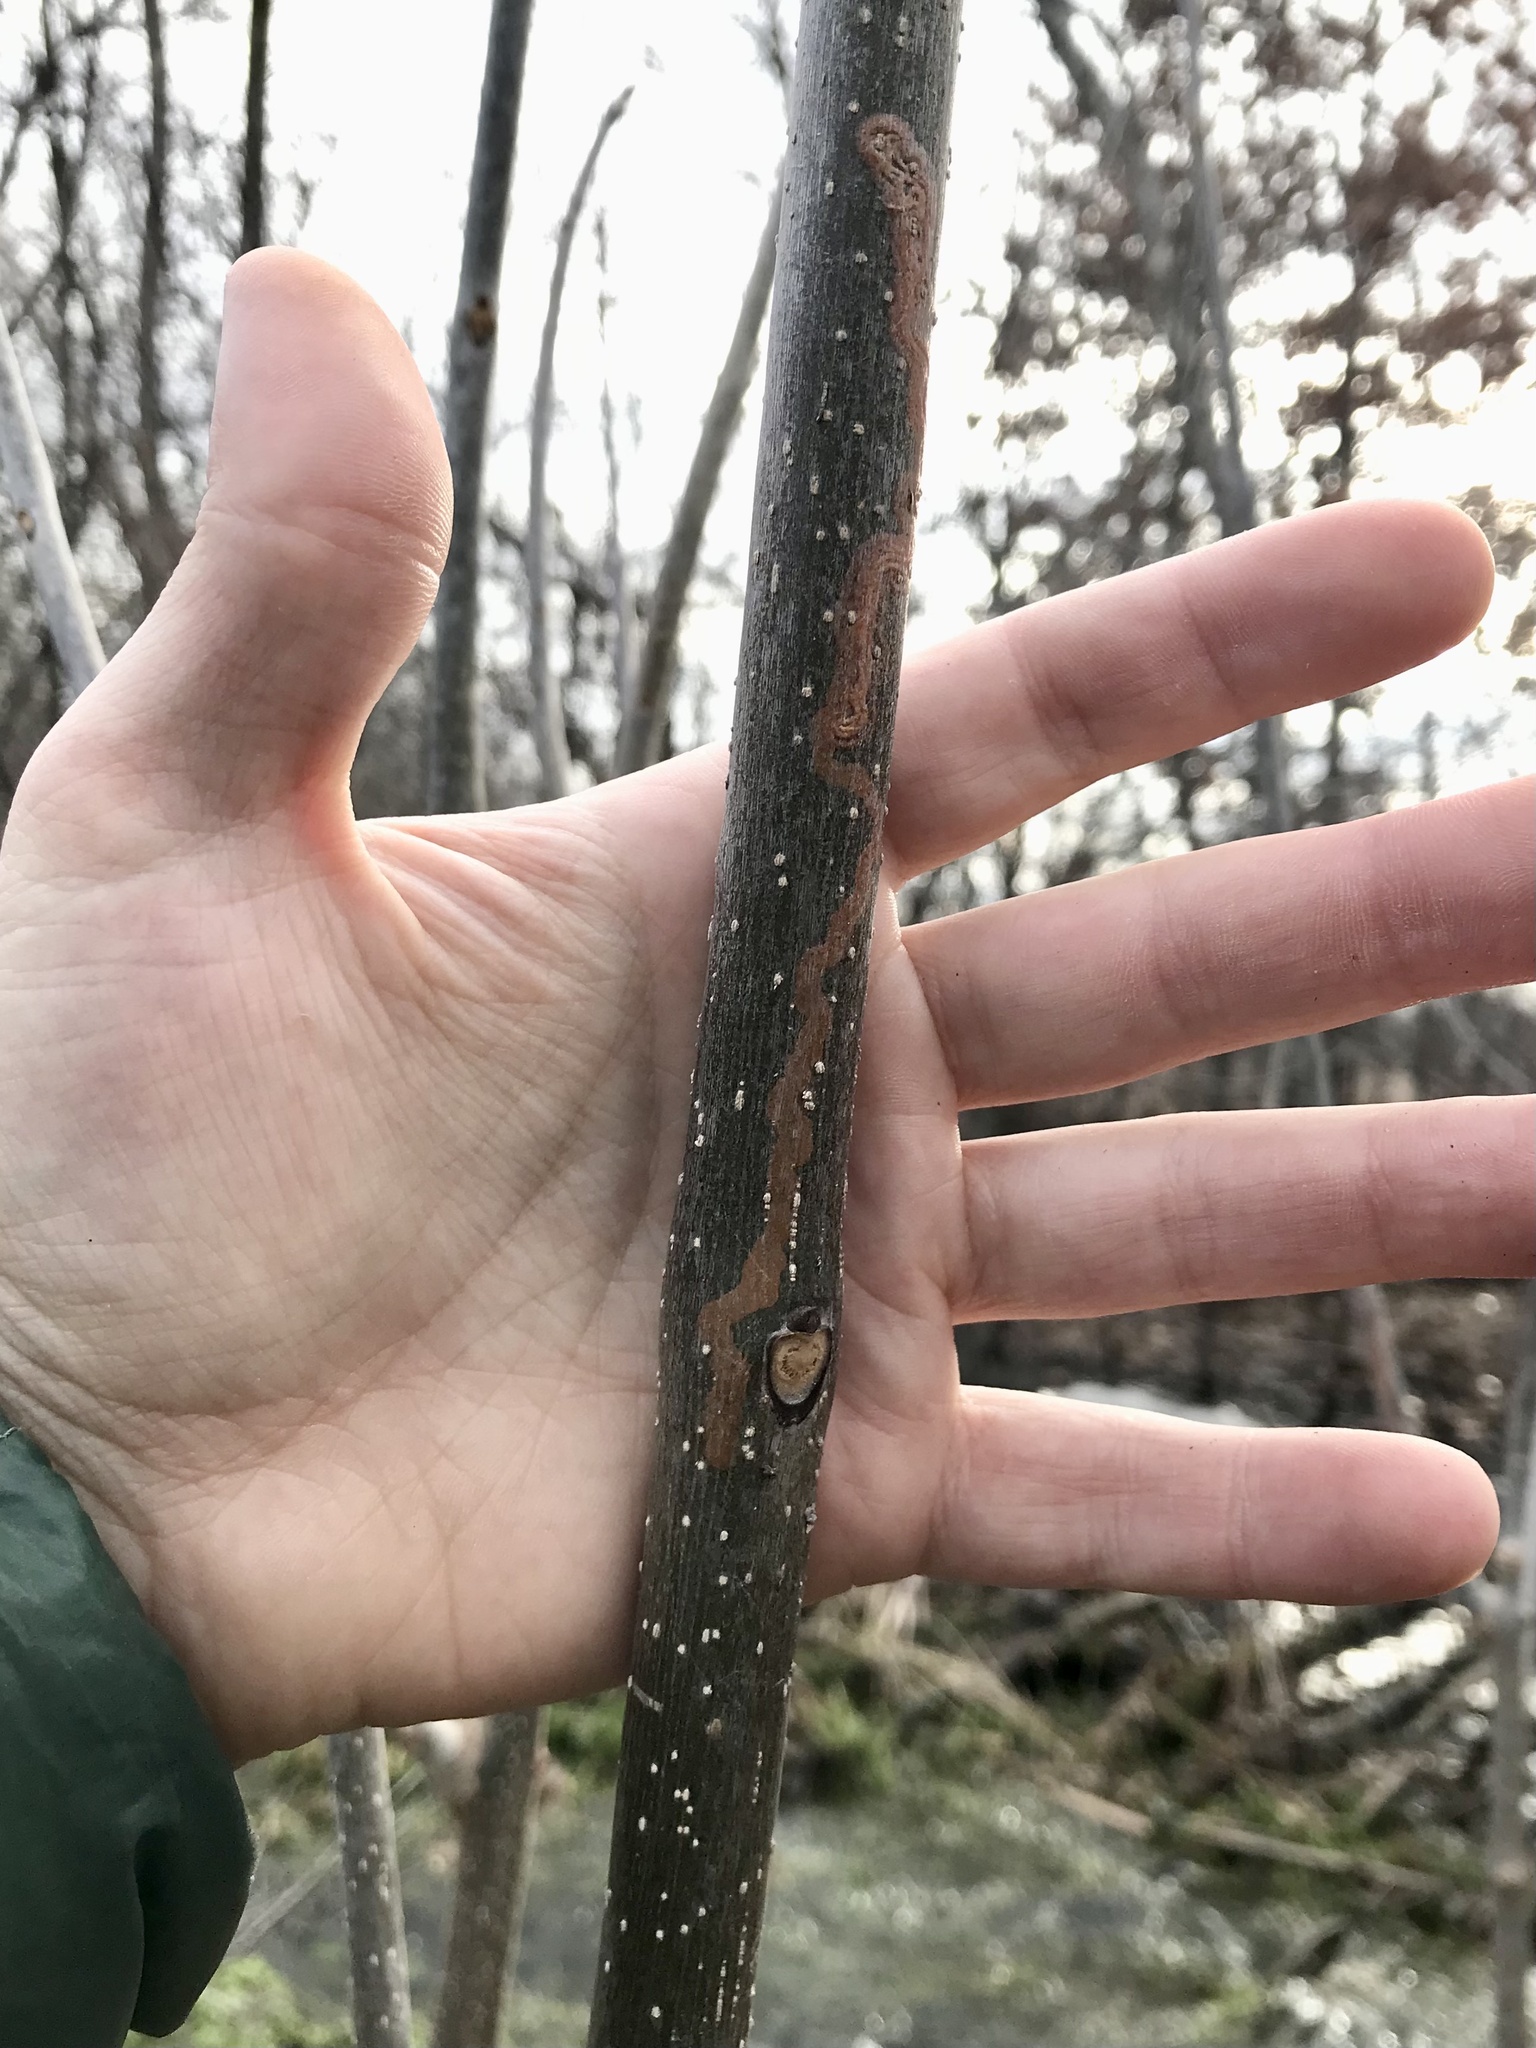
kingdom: Animalia
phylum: Arthropoda
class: Insecta
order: Lepidoptera
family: Gracillariidae
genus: Marmara
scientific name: Marmara fraxinicola
